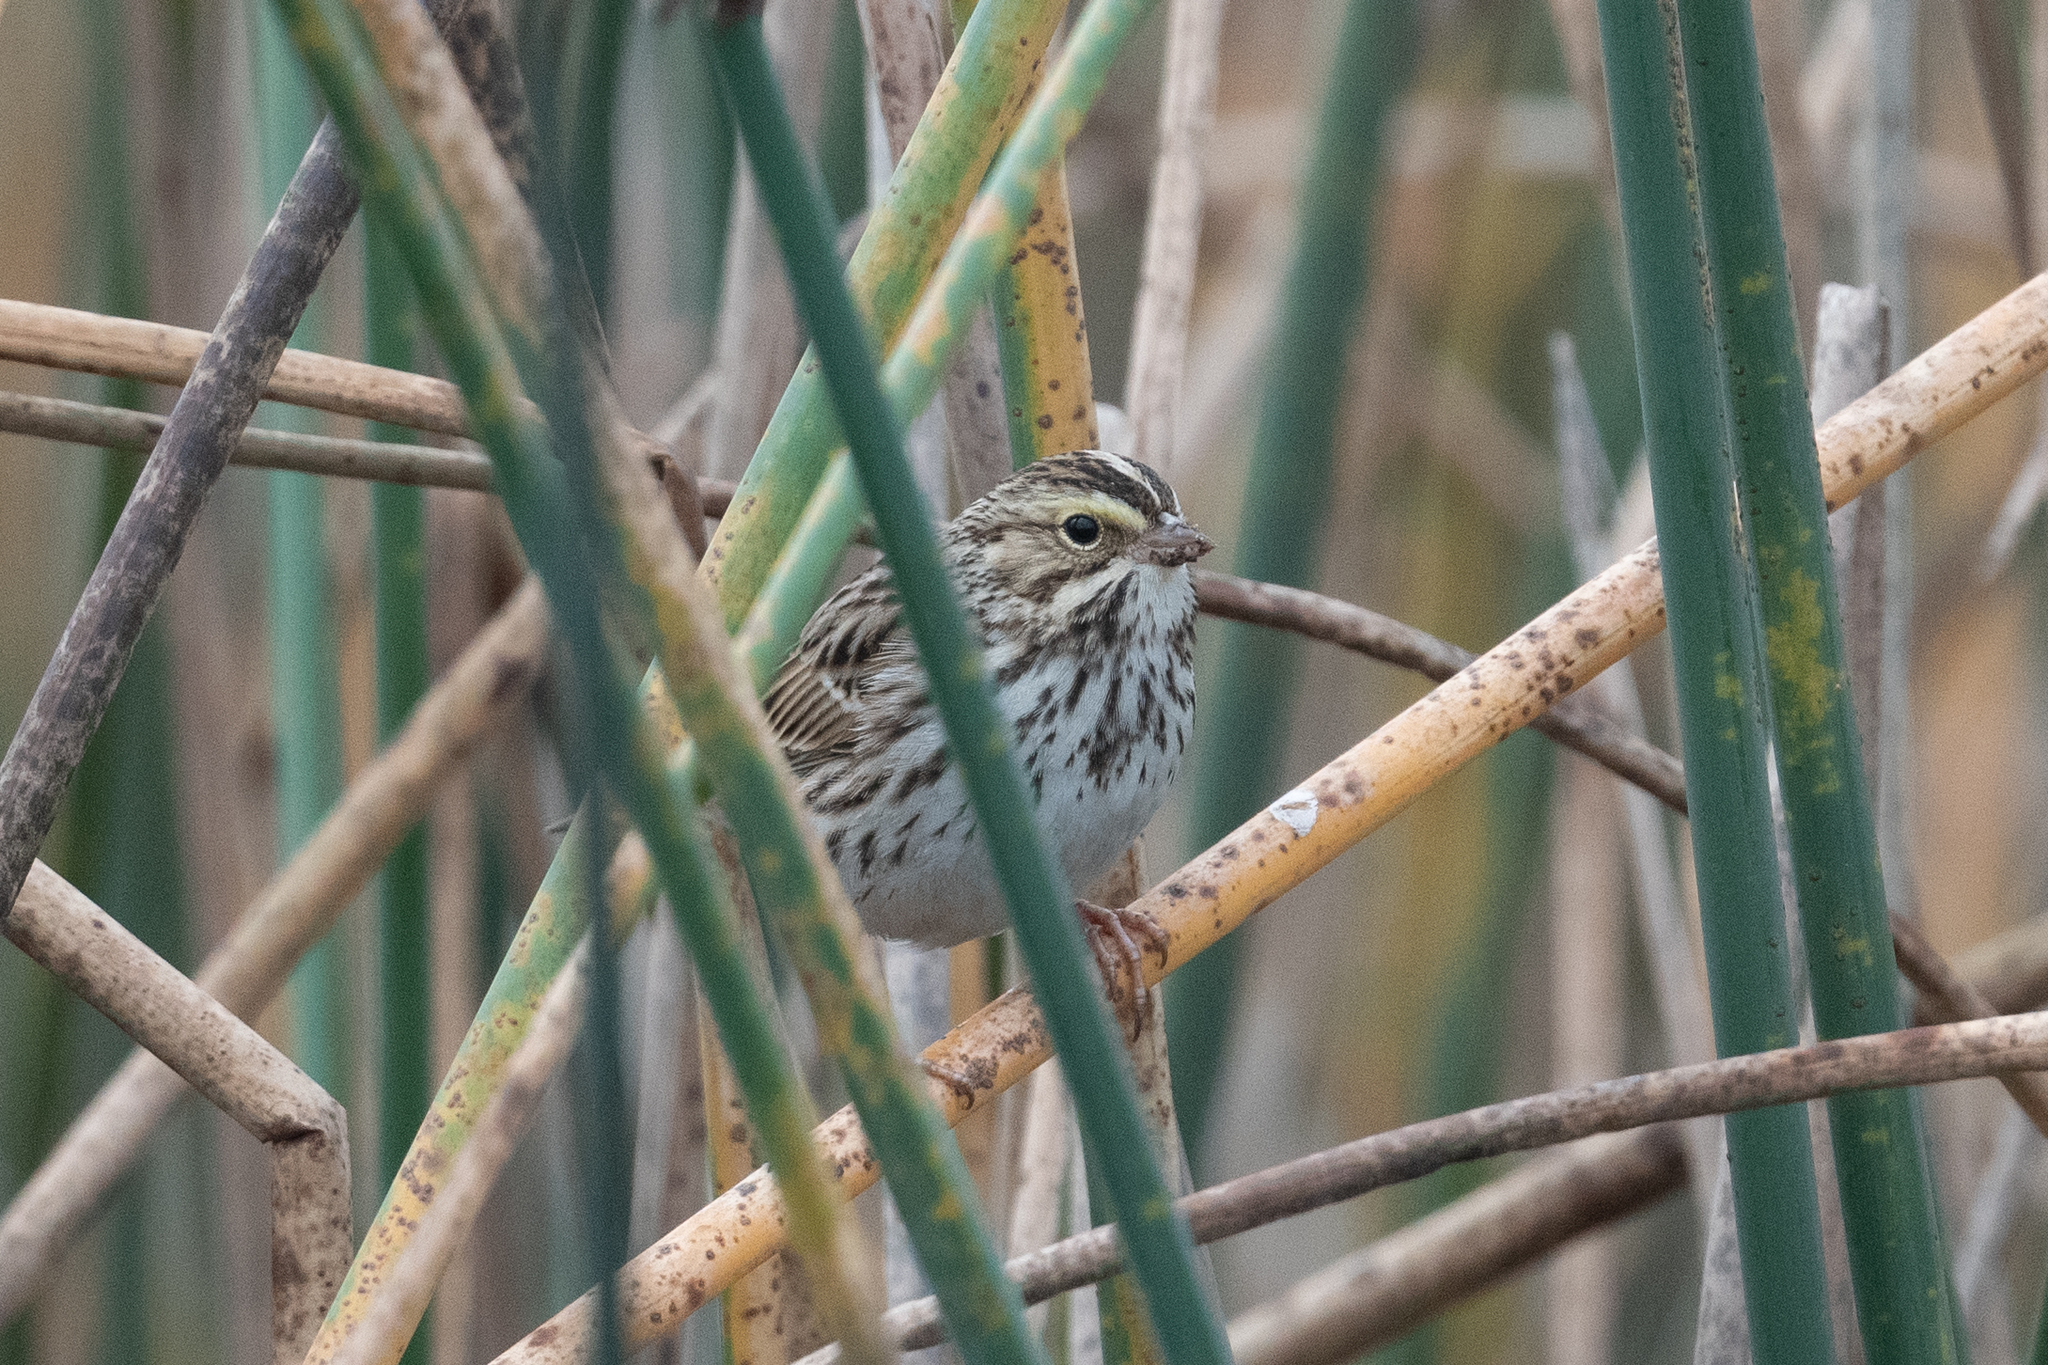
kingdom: Animalia
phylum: Chordata
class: Aves
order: Passeriformes
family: Passerellidae
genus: Passerculus
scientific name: Passerculus sandwichensis
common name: Savannah sparrow
